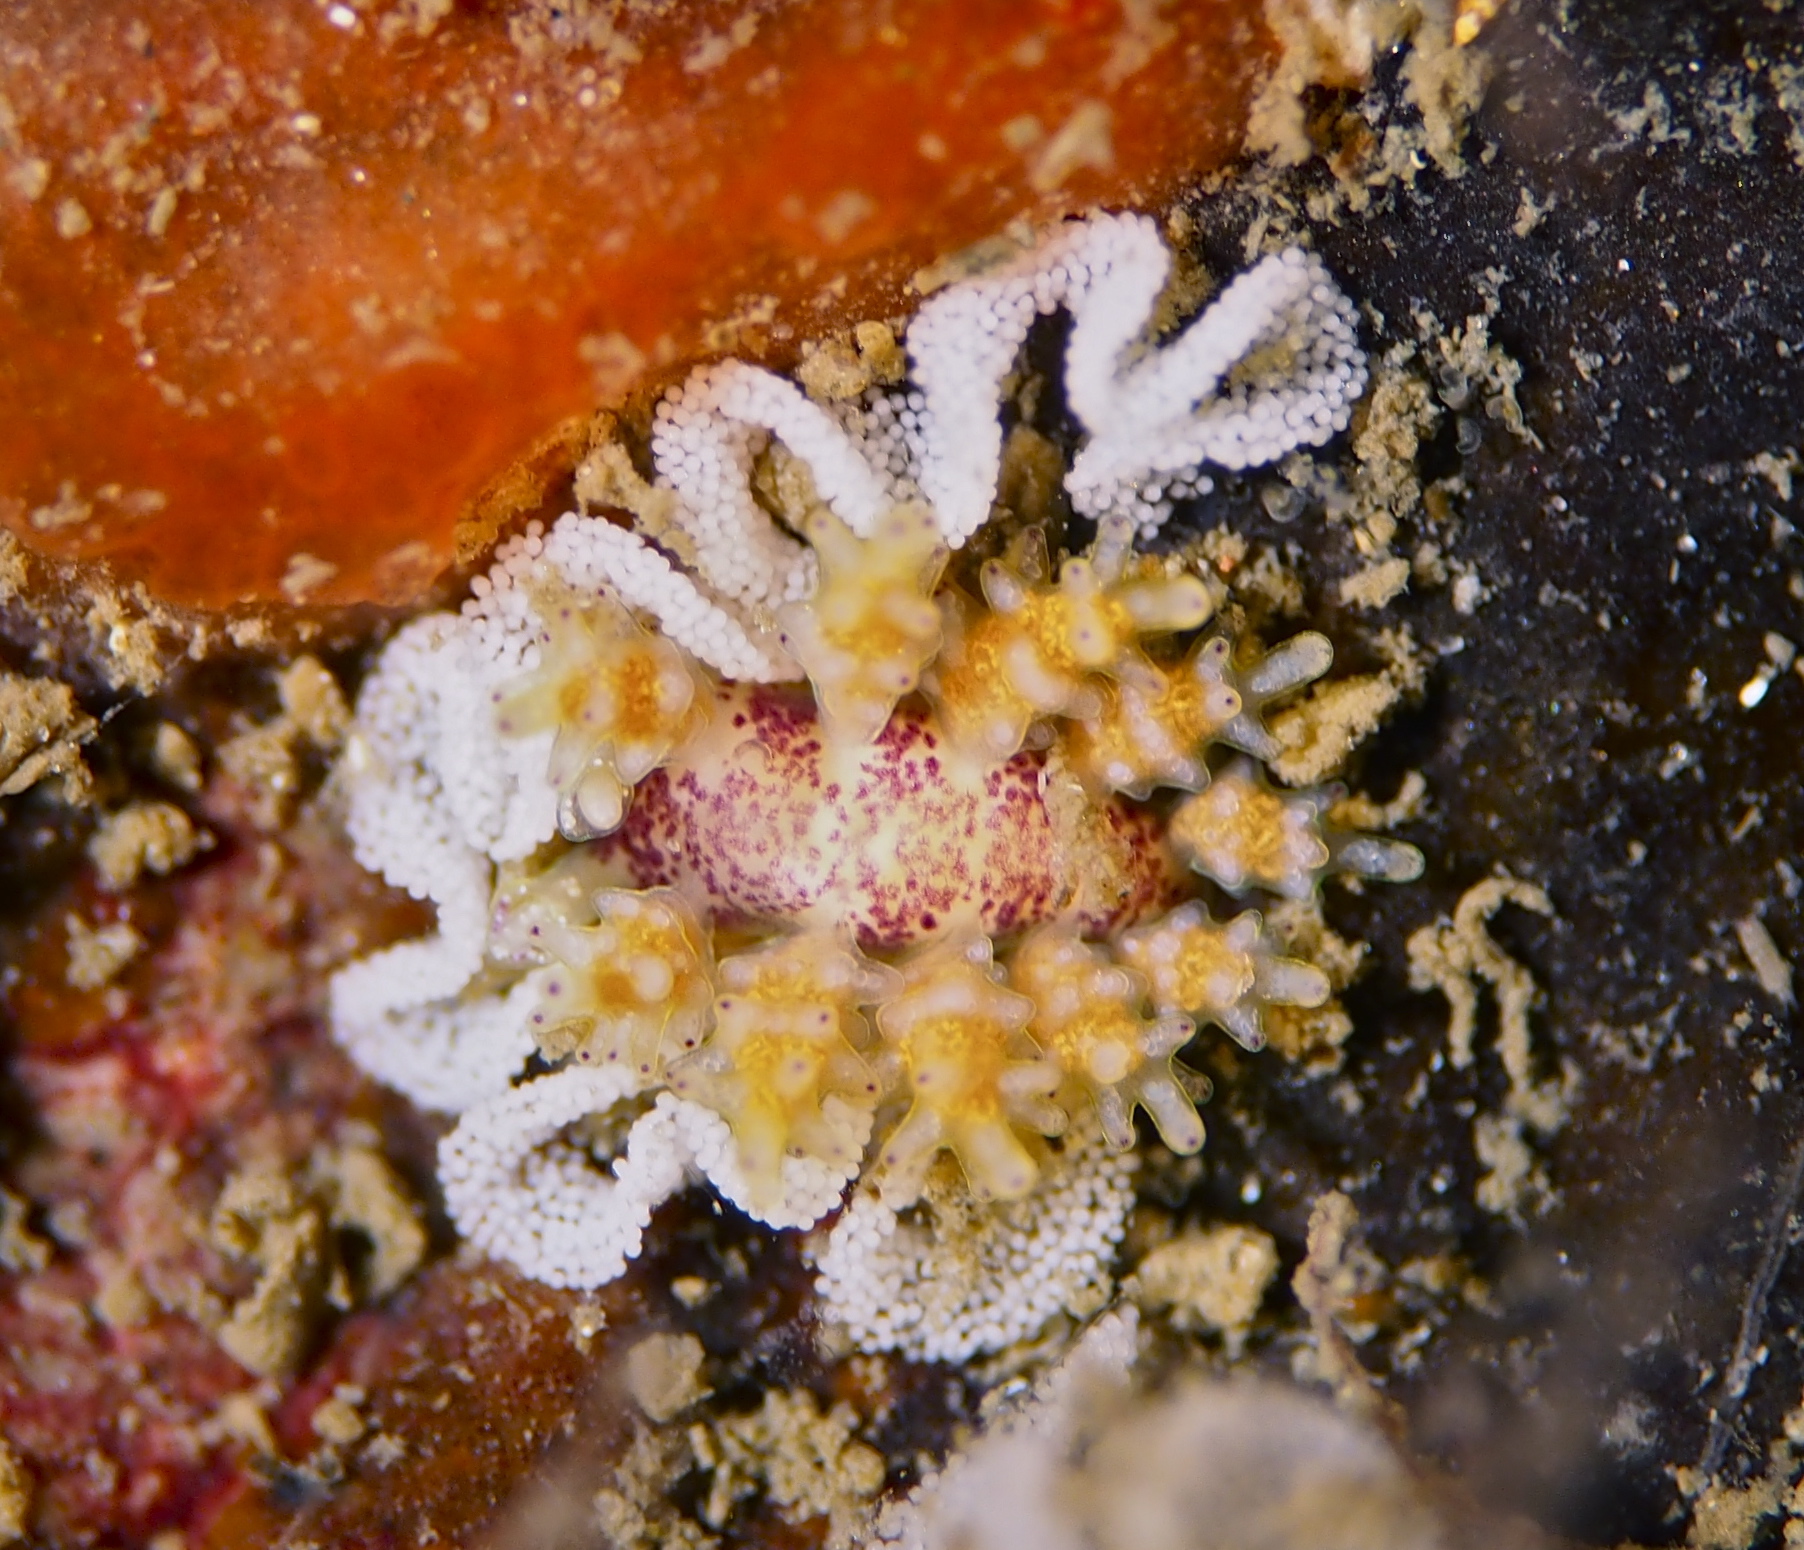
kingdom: Animalia
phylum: Mollusca
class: Gastropoda
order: Nudibranchia
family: Dotidae
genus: Doto
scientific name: Doto dunnei
